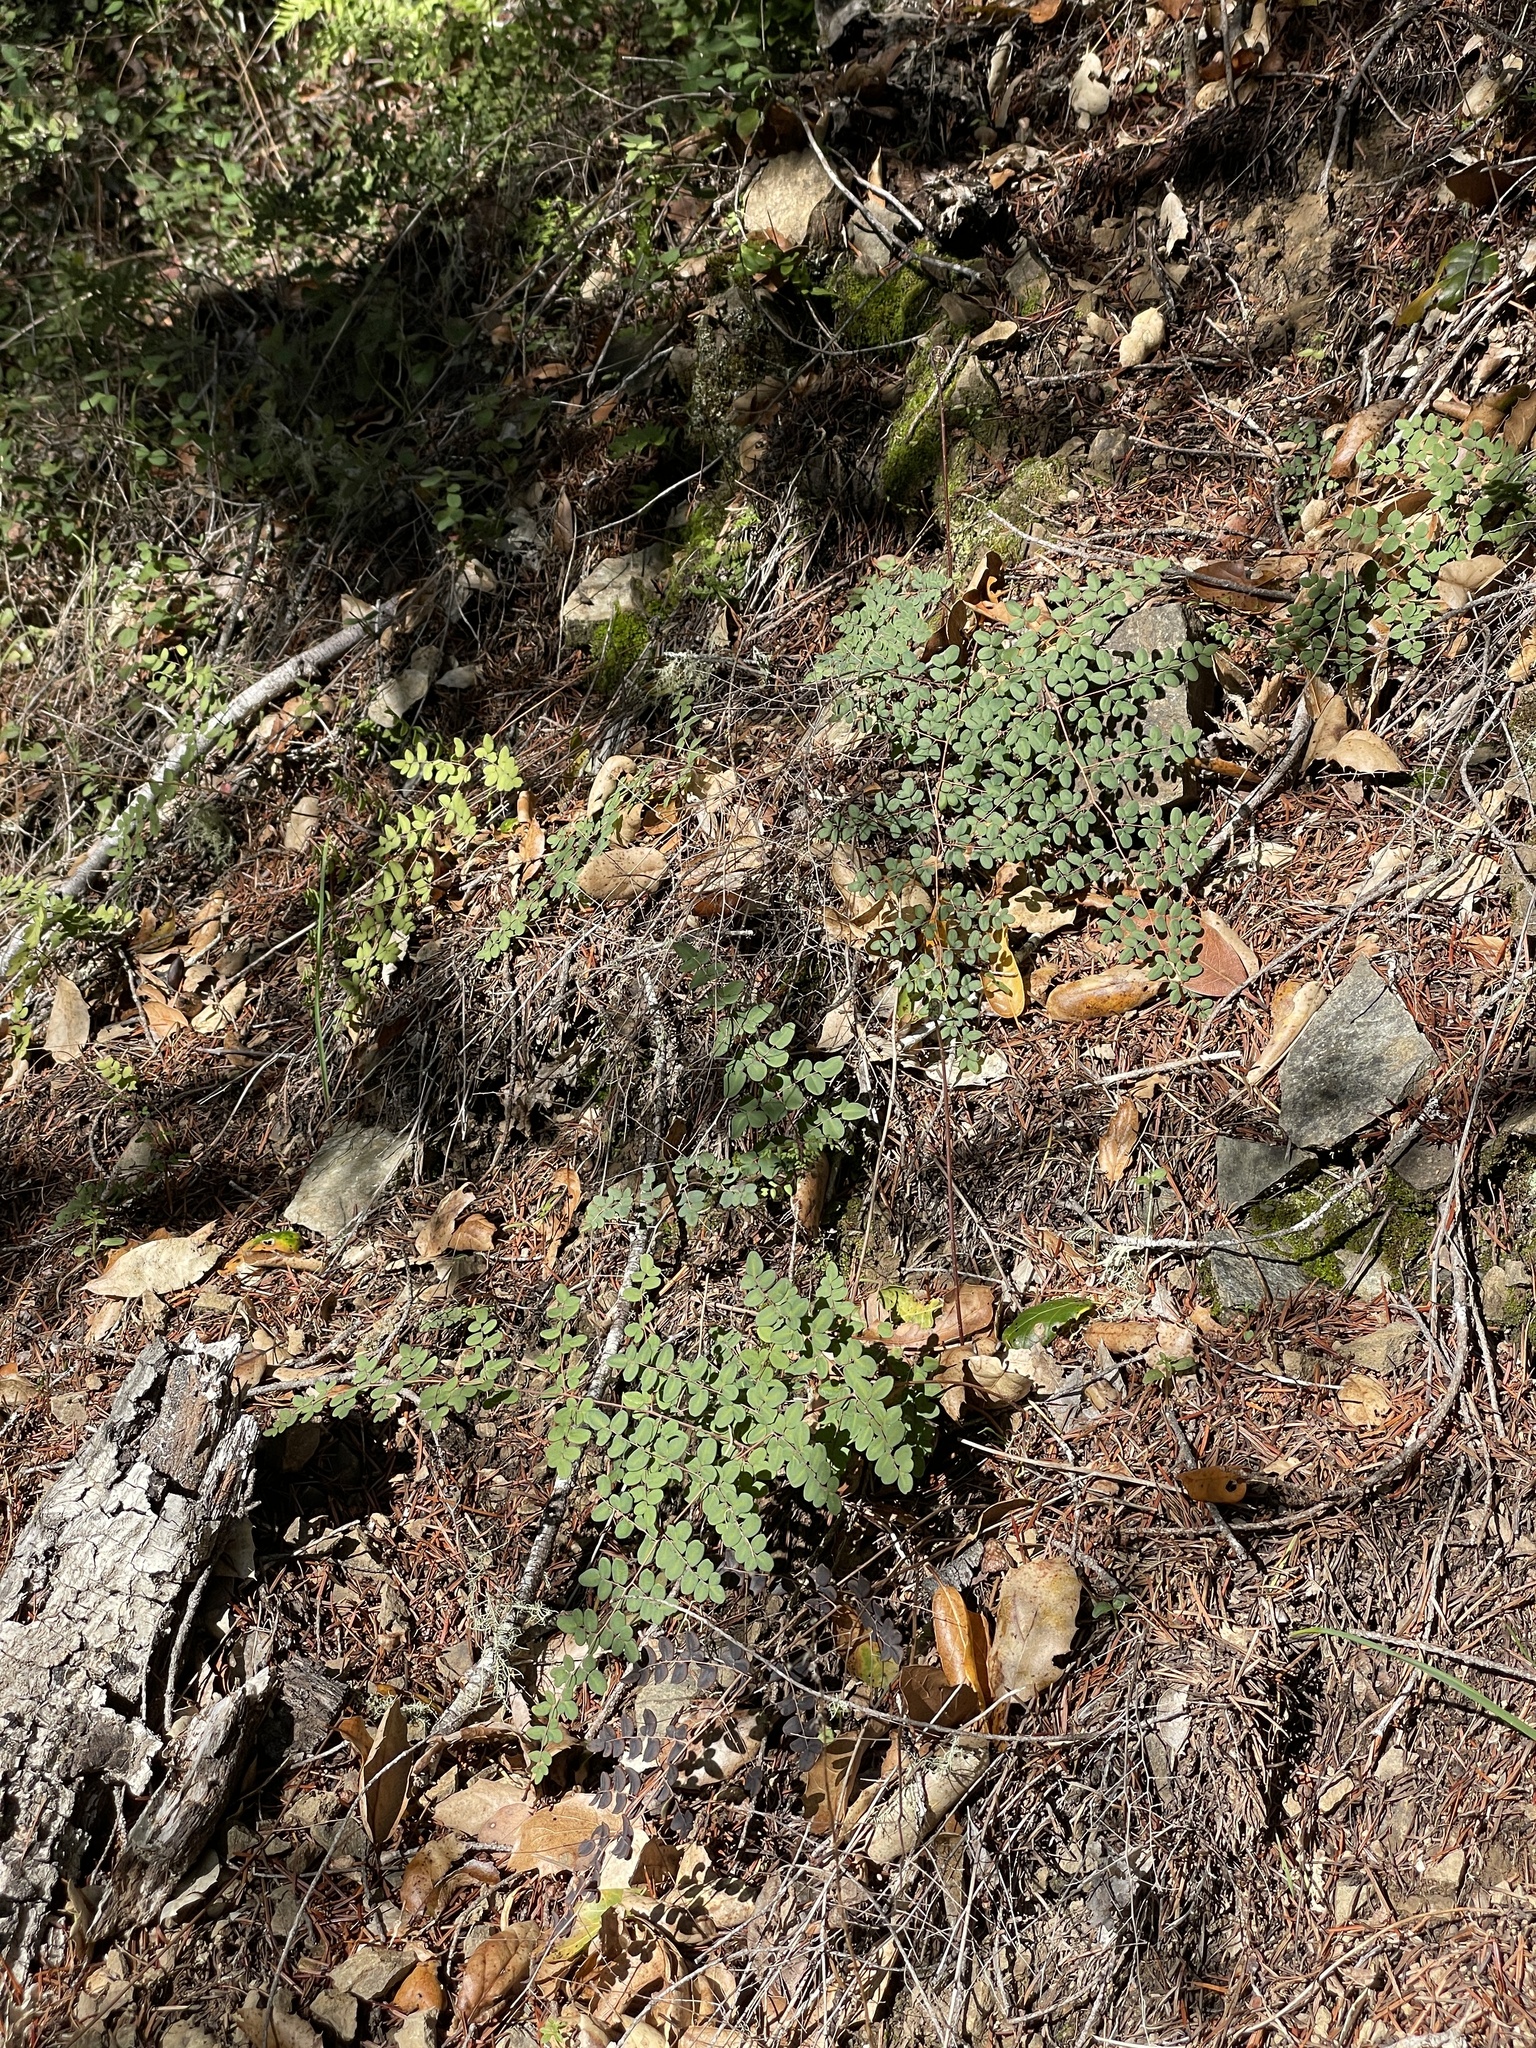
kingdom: Plantae
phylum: Tracheophyta
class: Polypodiopsida
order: Polypodiales
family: Pteridaceae
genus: Pellaea
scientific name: Pellaea andromedifolia
